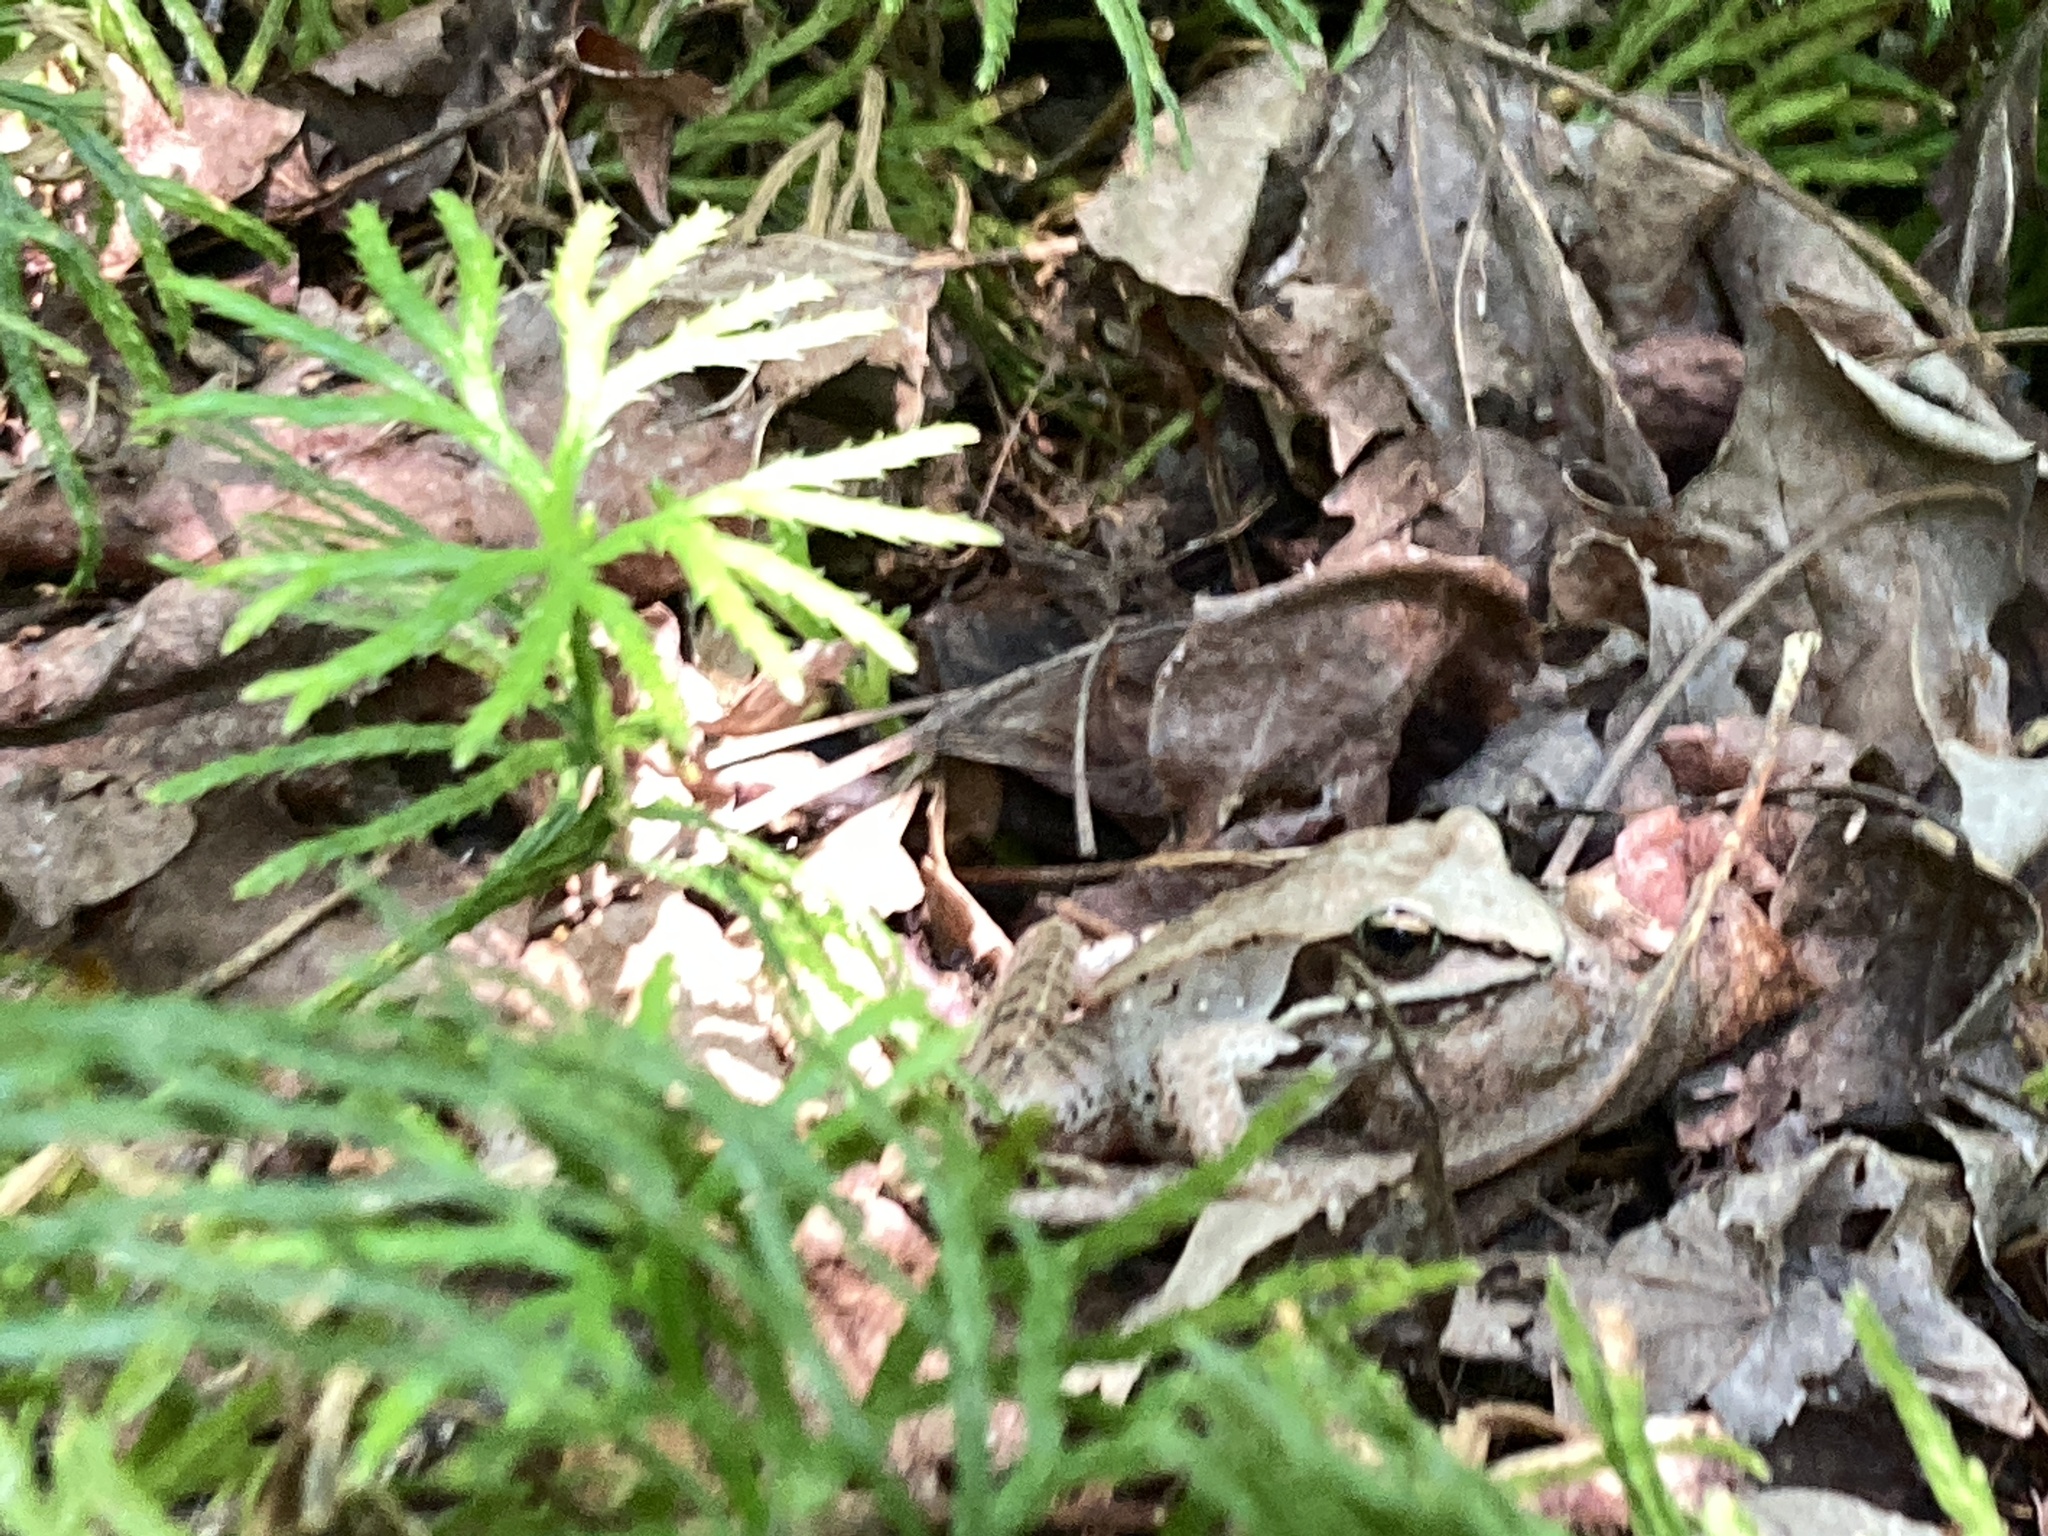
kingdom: Animalia
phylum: Chordata
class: Amphibia
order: Anura
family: Ranidae
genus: Lithobates
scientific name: Lithobates sylvaticus
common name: Wood frog
